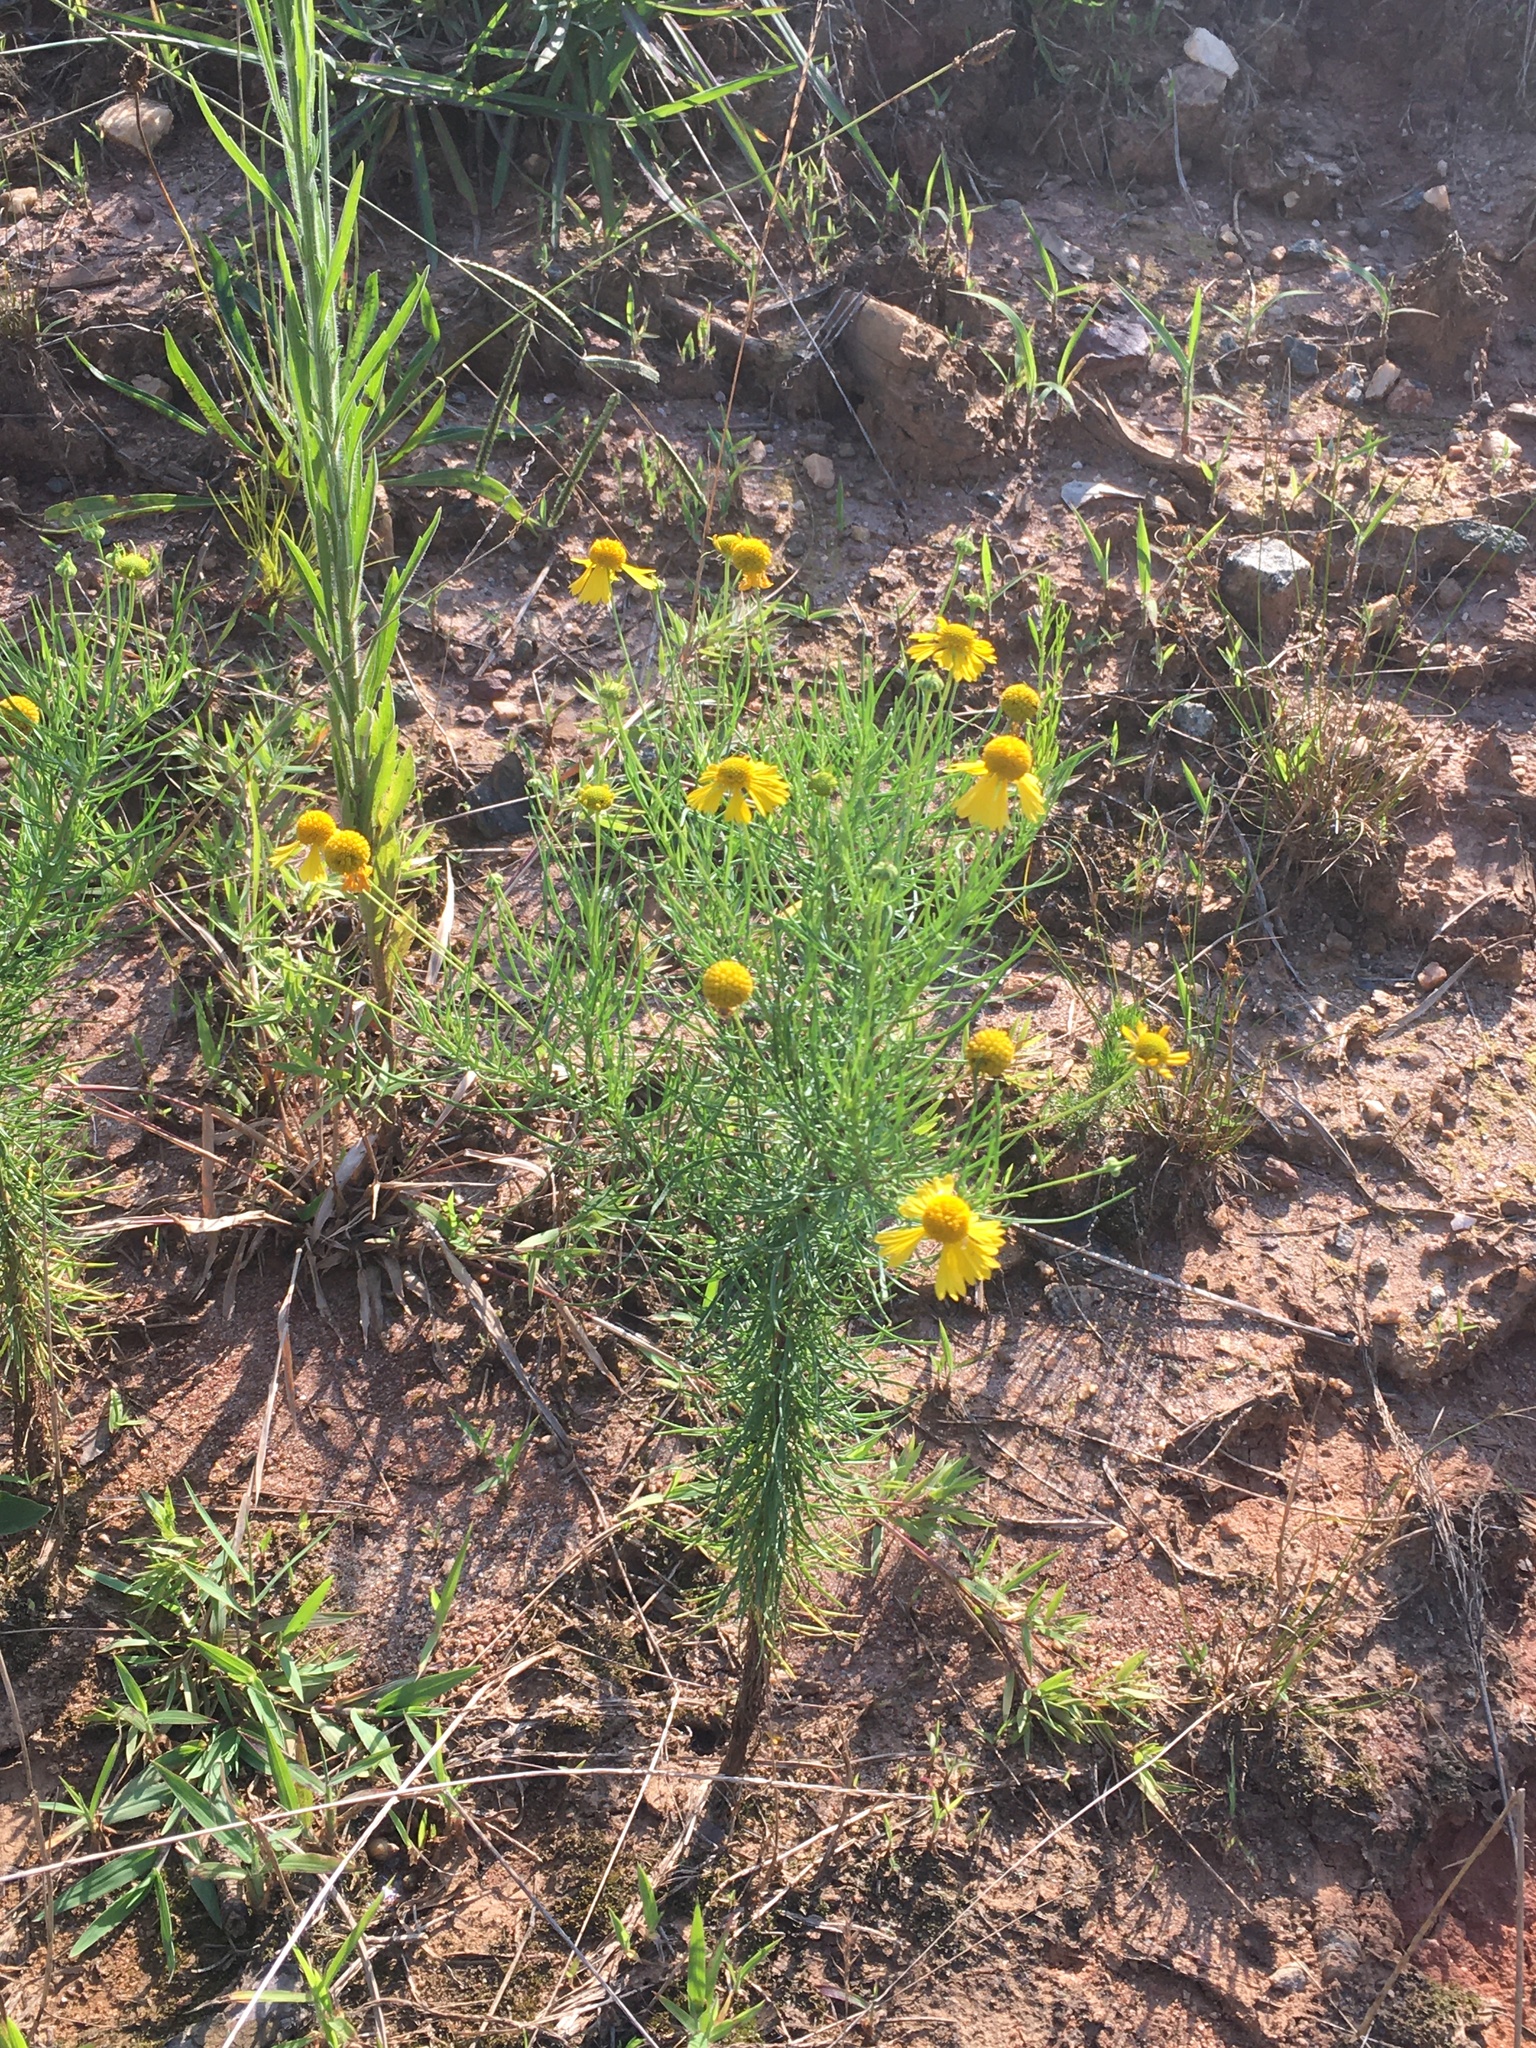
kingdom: Plantae
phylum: Tracheophyta
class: Magnoliopsida
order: Asterales
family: Asteraceae
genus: Helenium
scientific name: Helenium amarum
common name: Bitter sneezeweed
